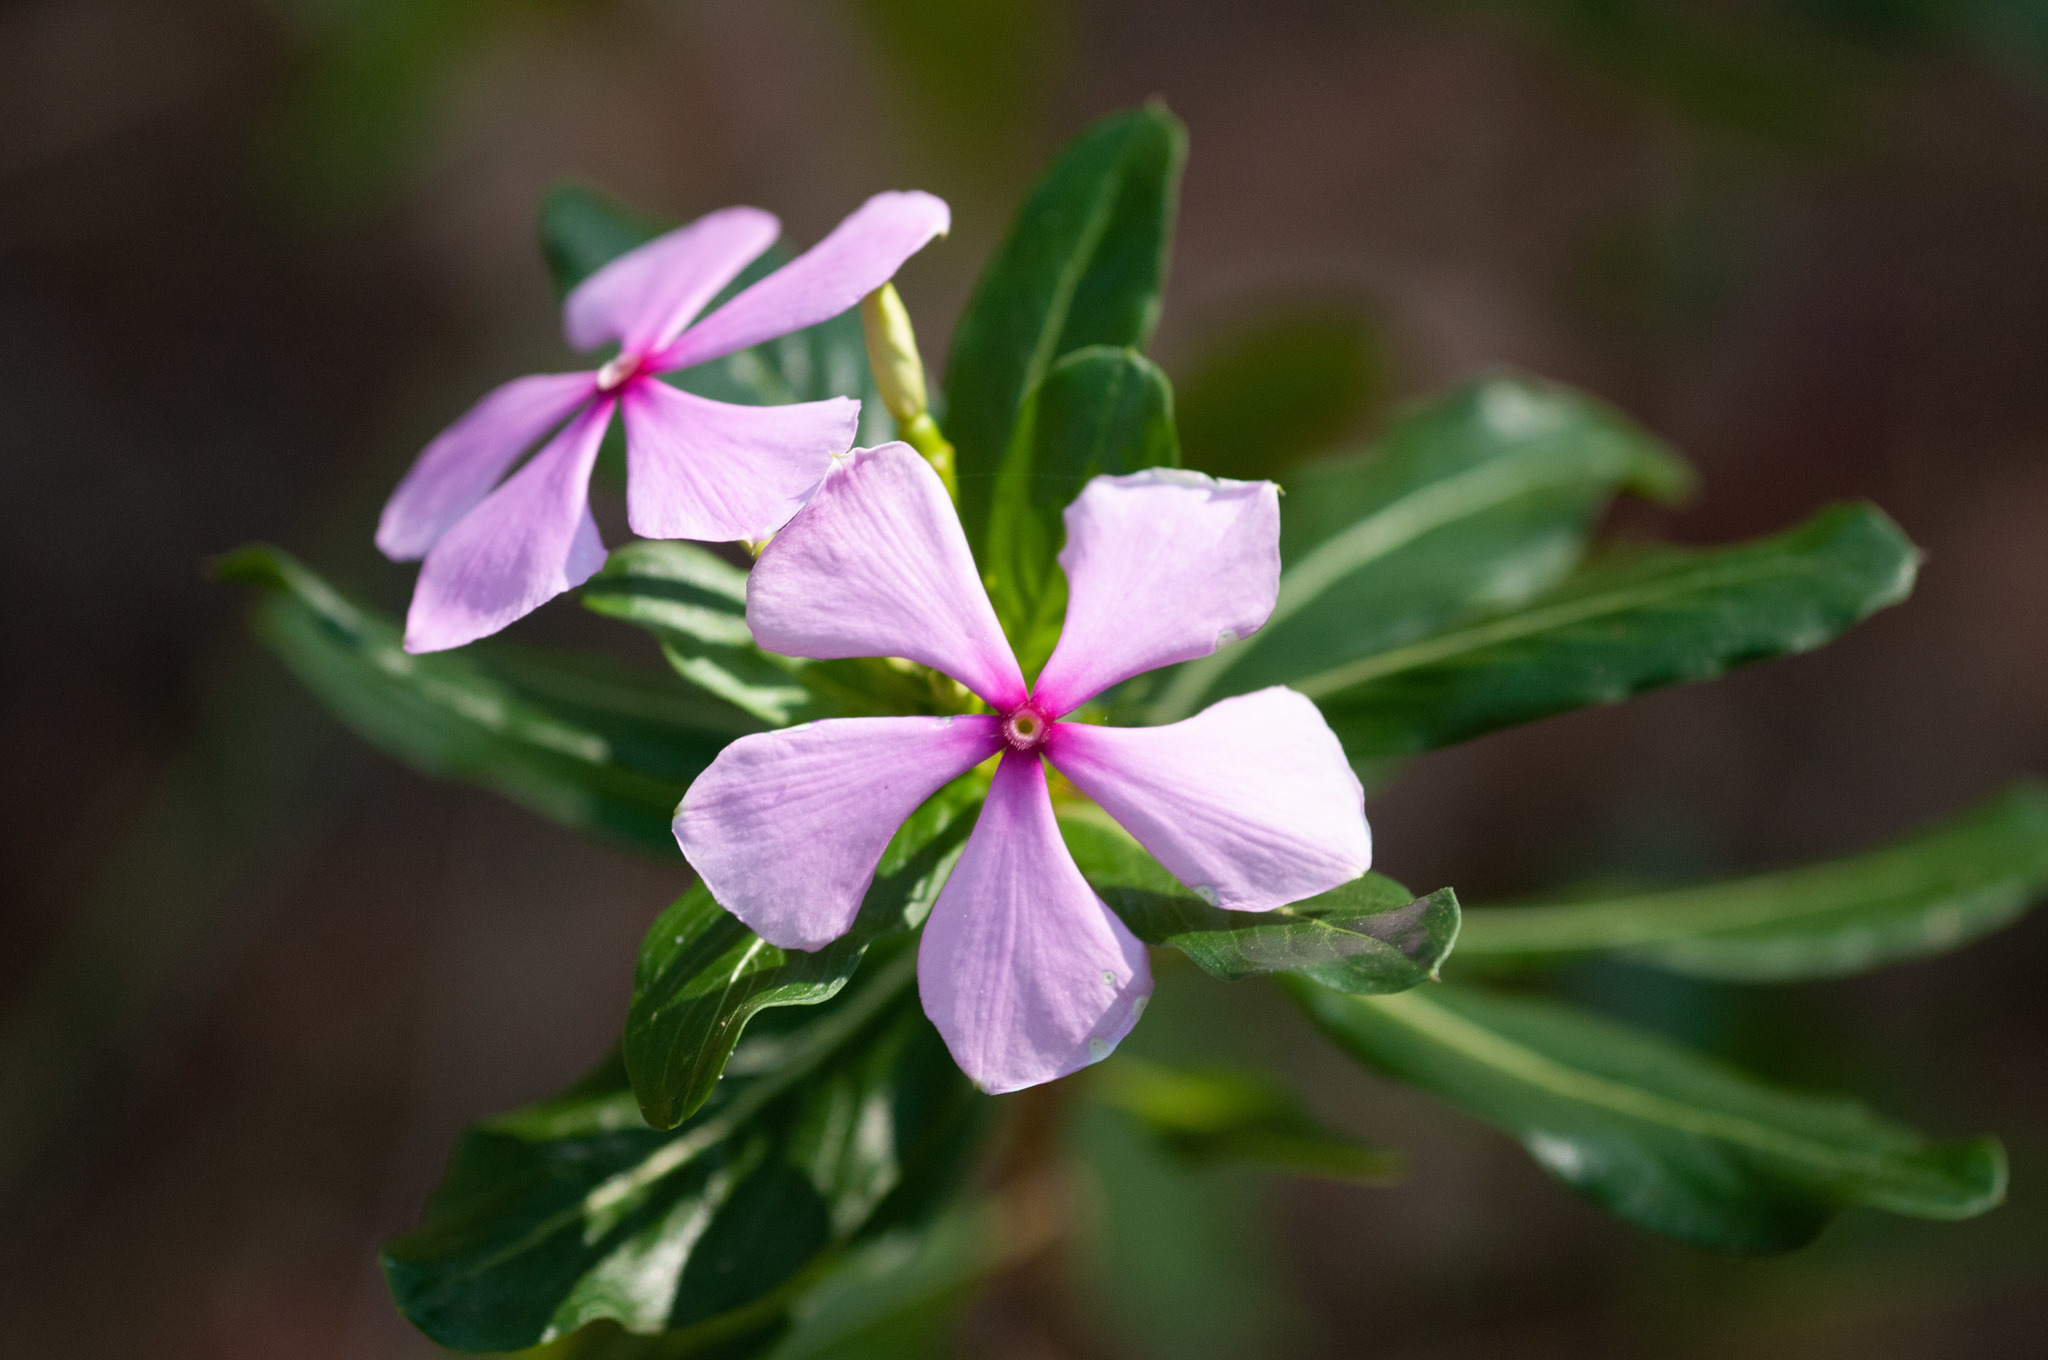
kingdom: Plantae
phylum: Tracheophyta
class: Magnoliopsida
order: Gentianales
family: Apocynaceae
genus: Catharanthus
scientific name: Catharanthus roseus
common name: Madagascar periwinkle
